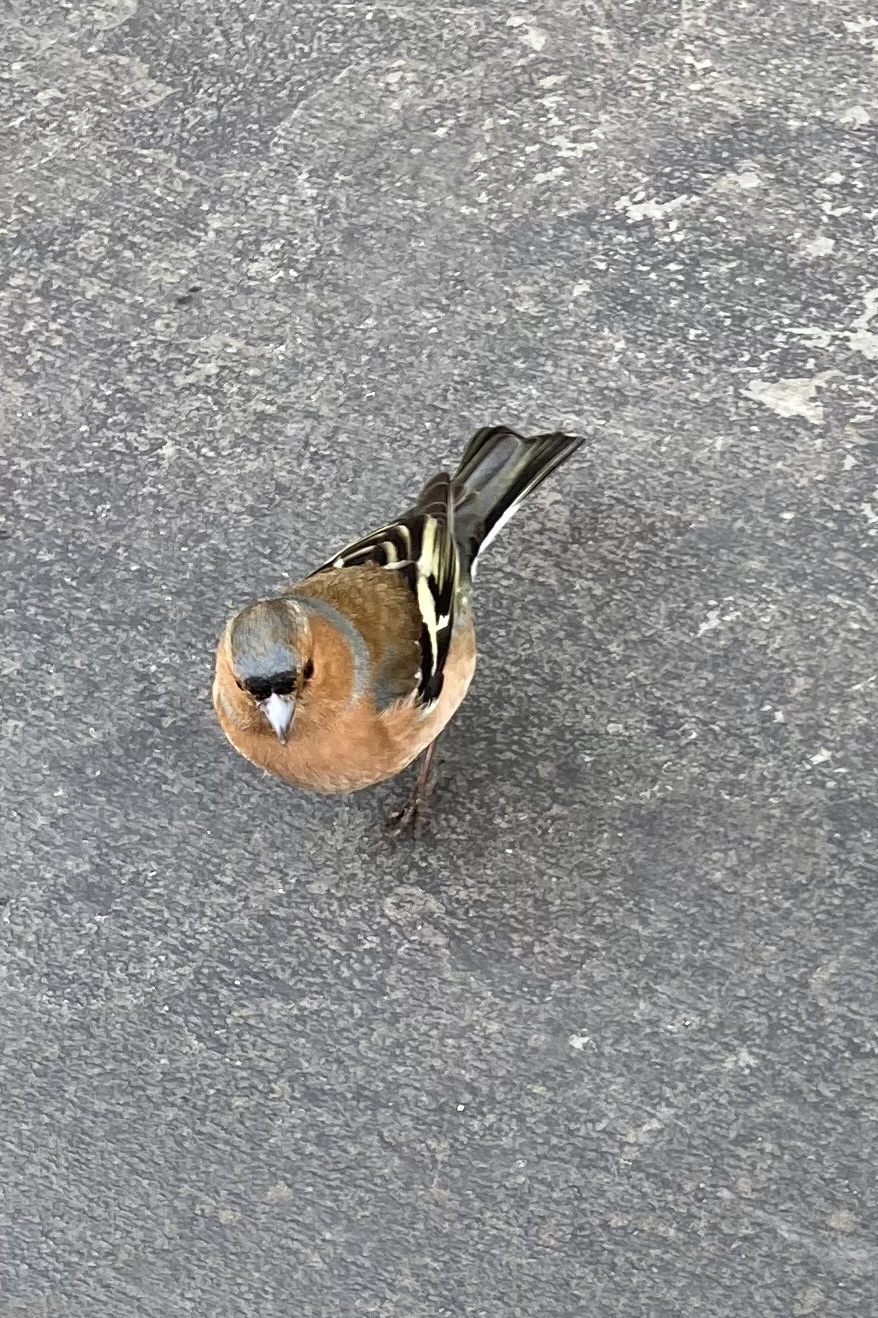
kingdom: Animalia
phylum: Chordata
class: Aves
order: Passeriformes
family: Fringillidae
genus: Fringilla
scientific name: Fringilla coelebs
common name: Common chaffinch
